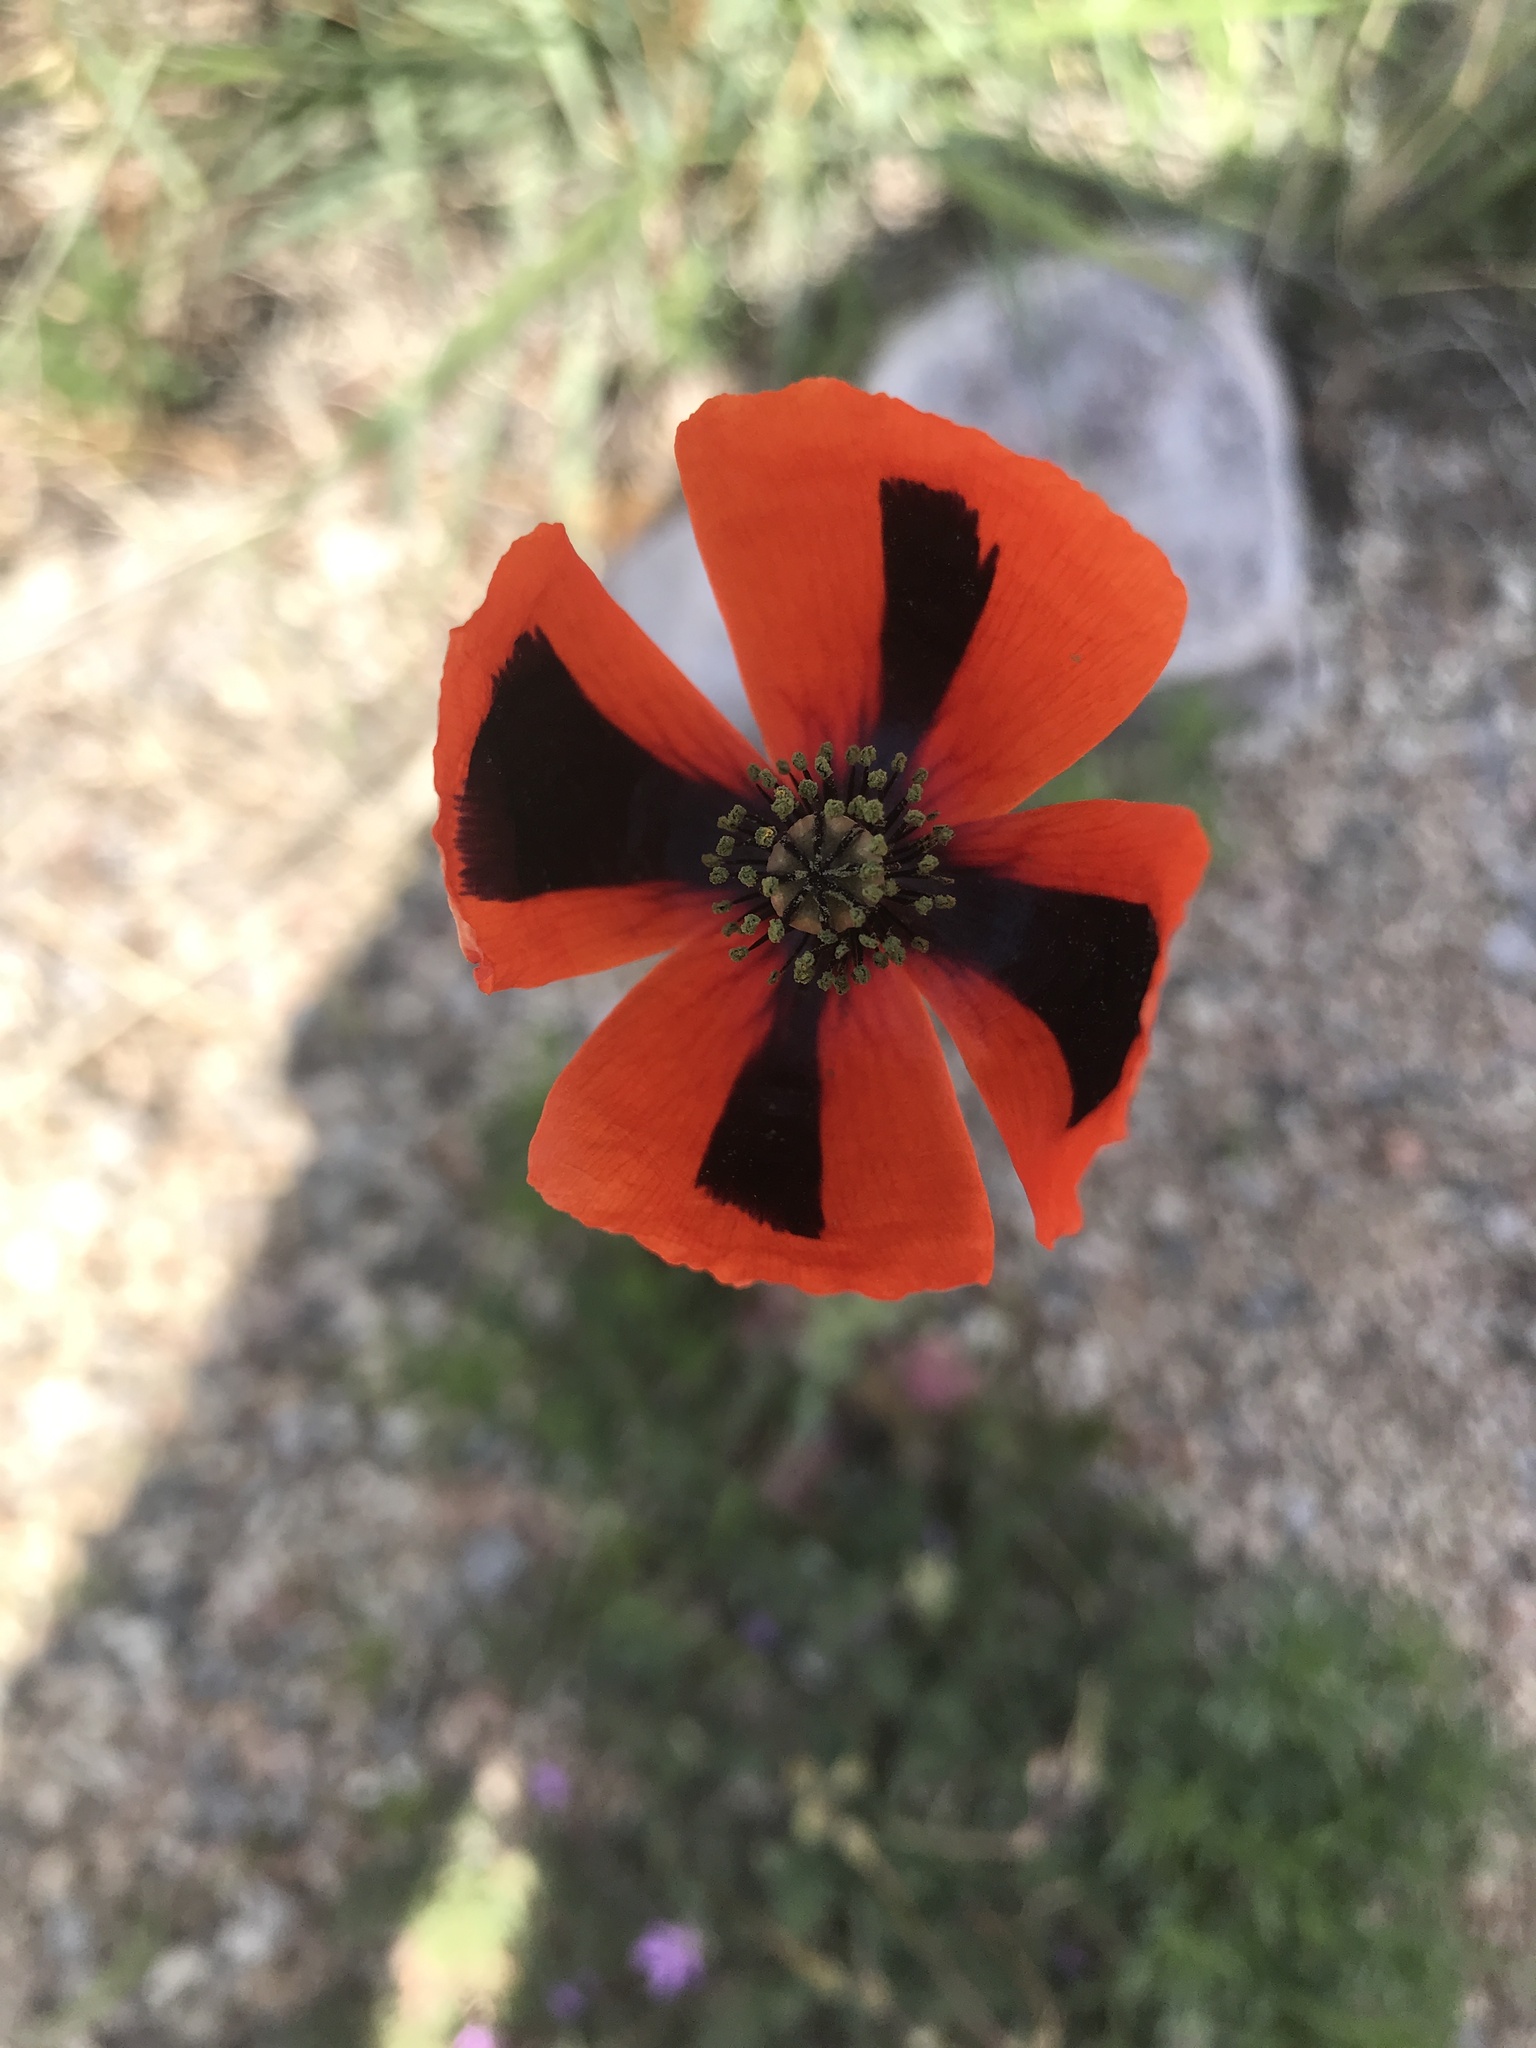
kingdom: Plantae
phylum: Tracheophyta
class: Magnoliopsida
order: Ranunculales
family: Papaveraceae
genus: Papaver
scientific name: Papaver dubium
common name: Long-headed poppy
